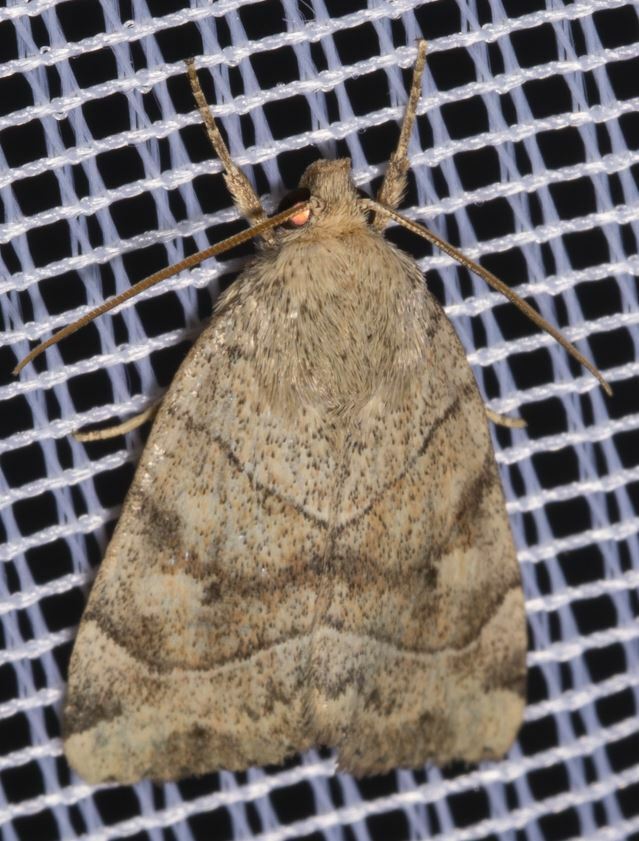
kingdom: Animalia
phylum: Arthropoda
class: Insecta
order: Lepidoptera
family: Noctuidae
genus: Cosmia
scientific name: Cosmia trapezina
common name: Dun-bar
